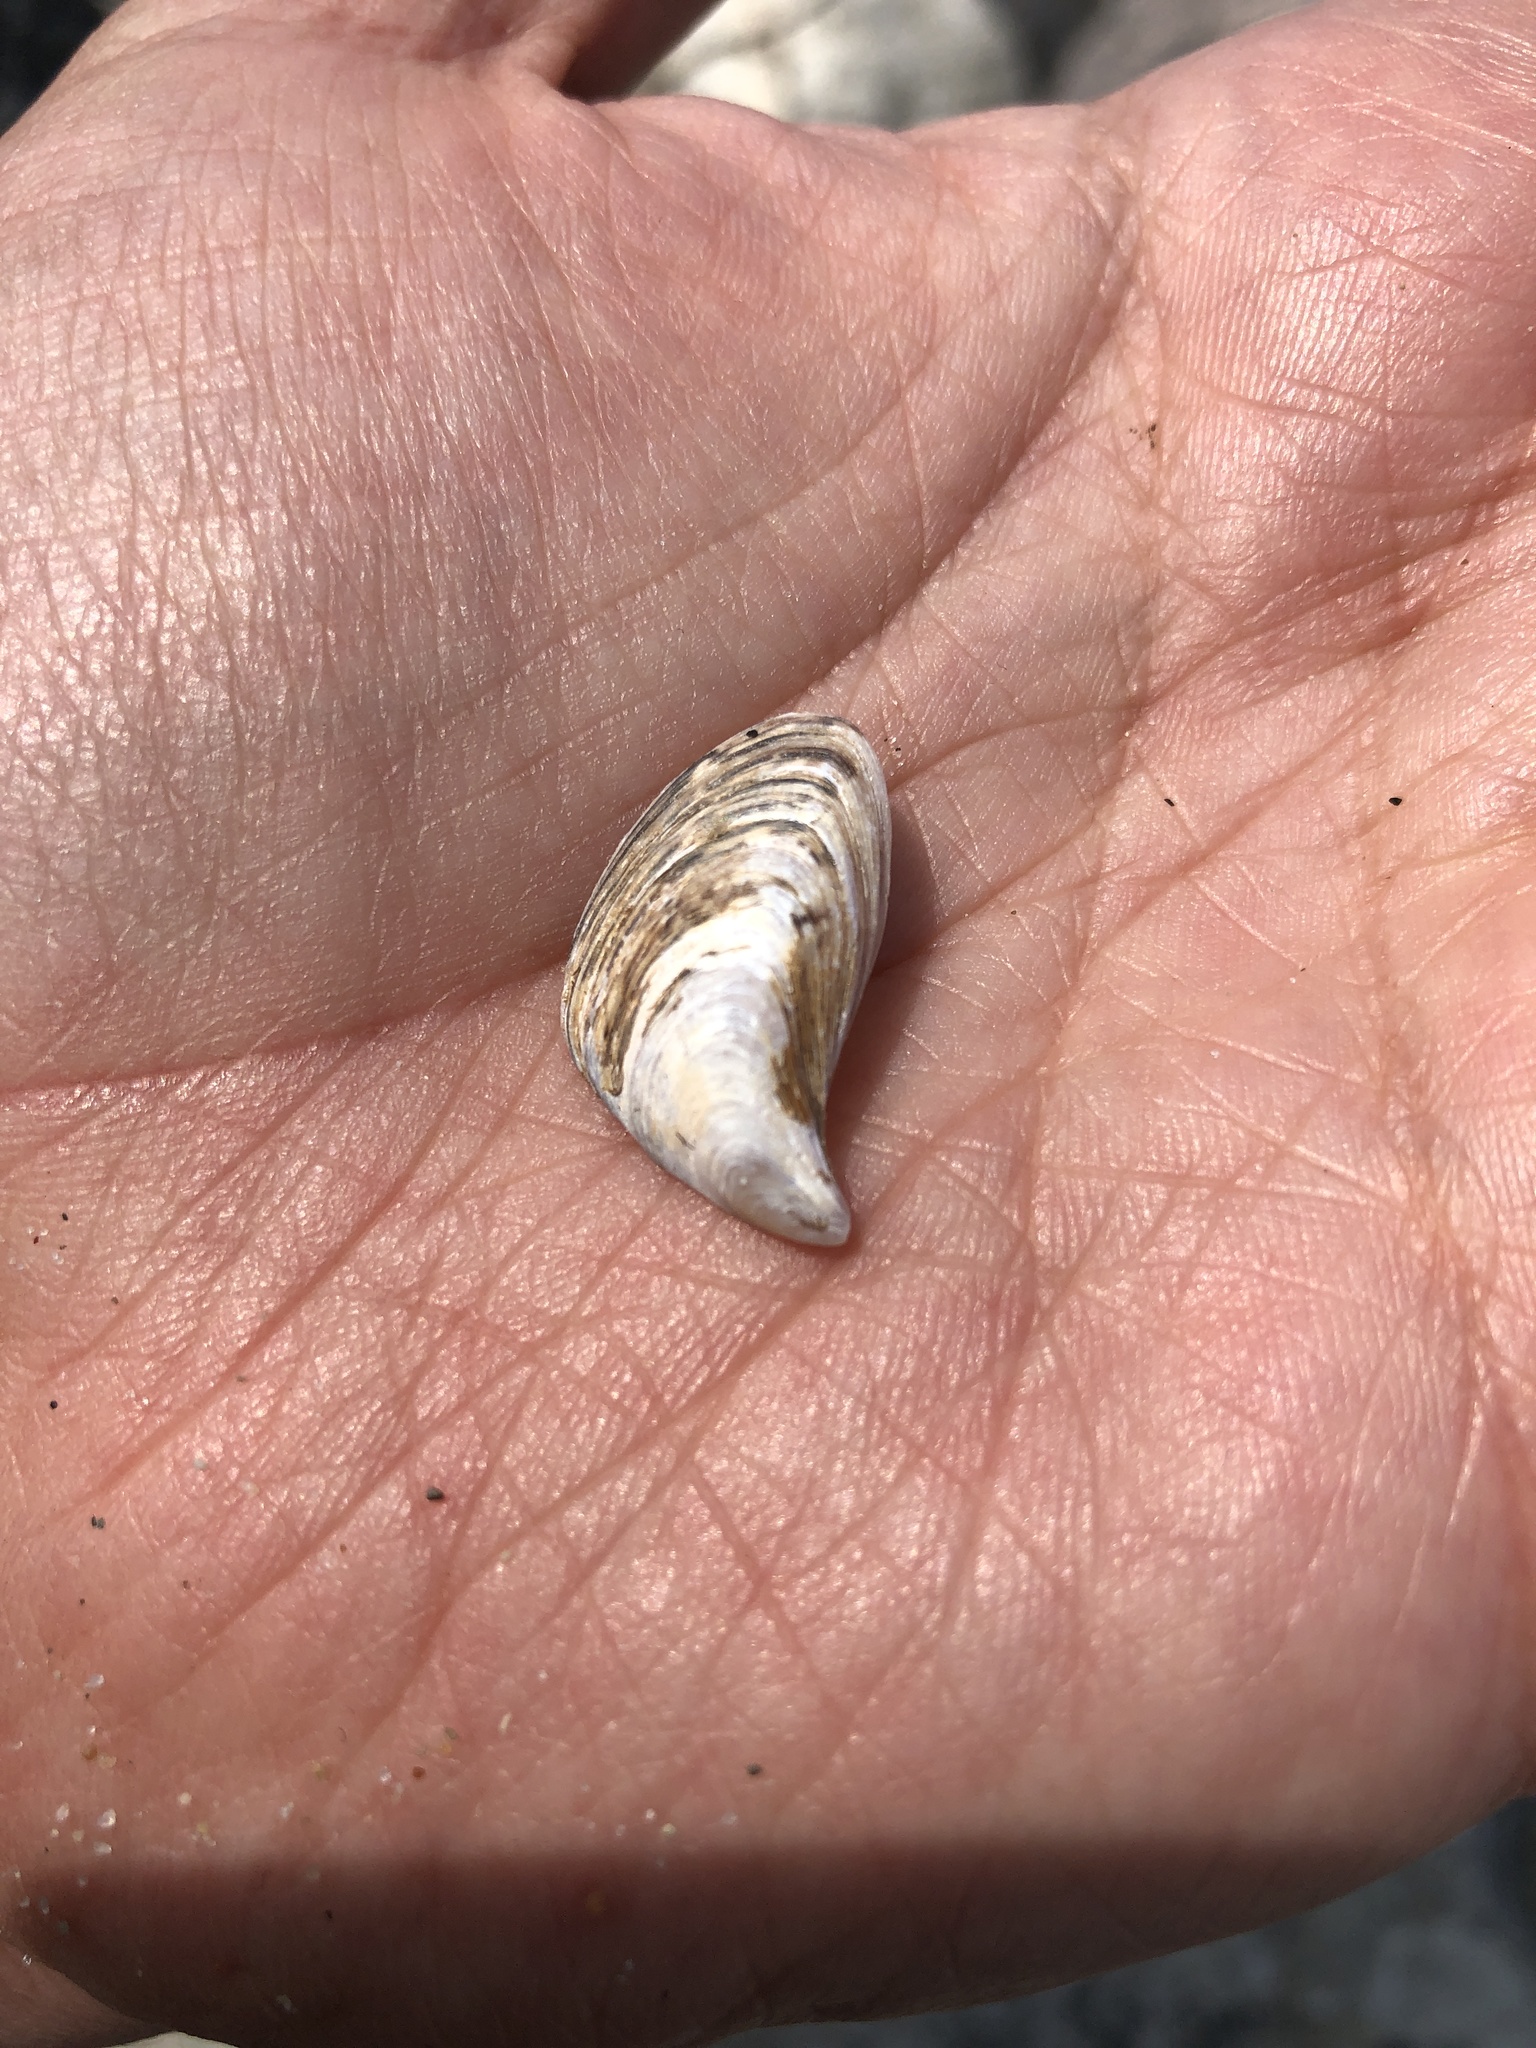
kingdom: Animalia
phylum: Mollusca
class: Bivalvia
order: Myida
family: Dreissenidae
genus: Dreissena
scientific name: Dreissena bugensis
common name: Quagga mussel
